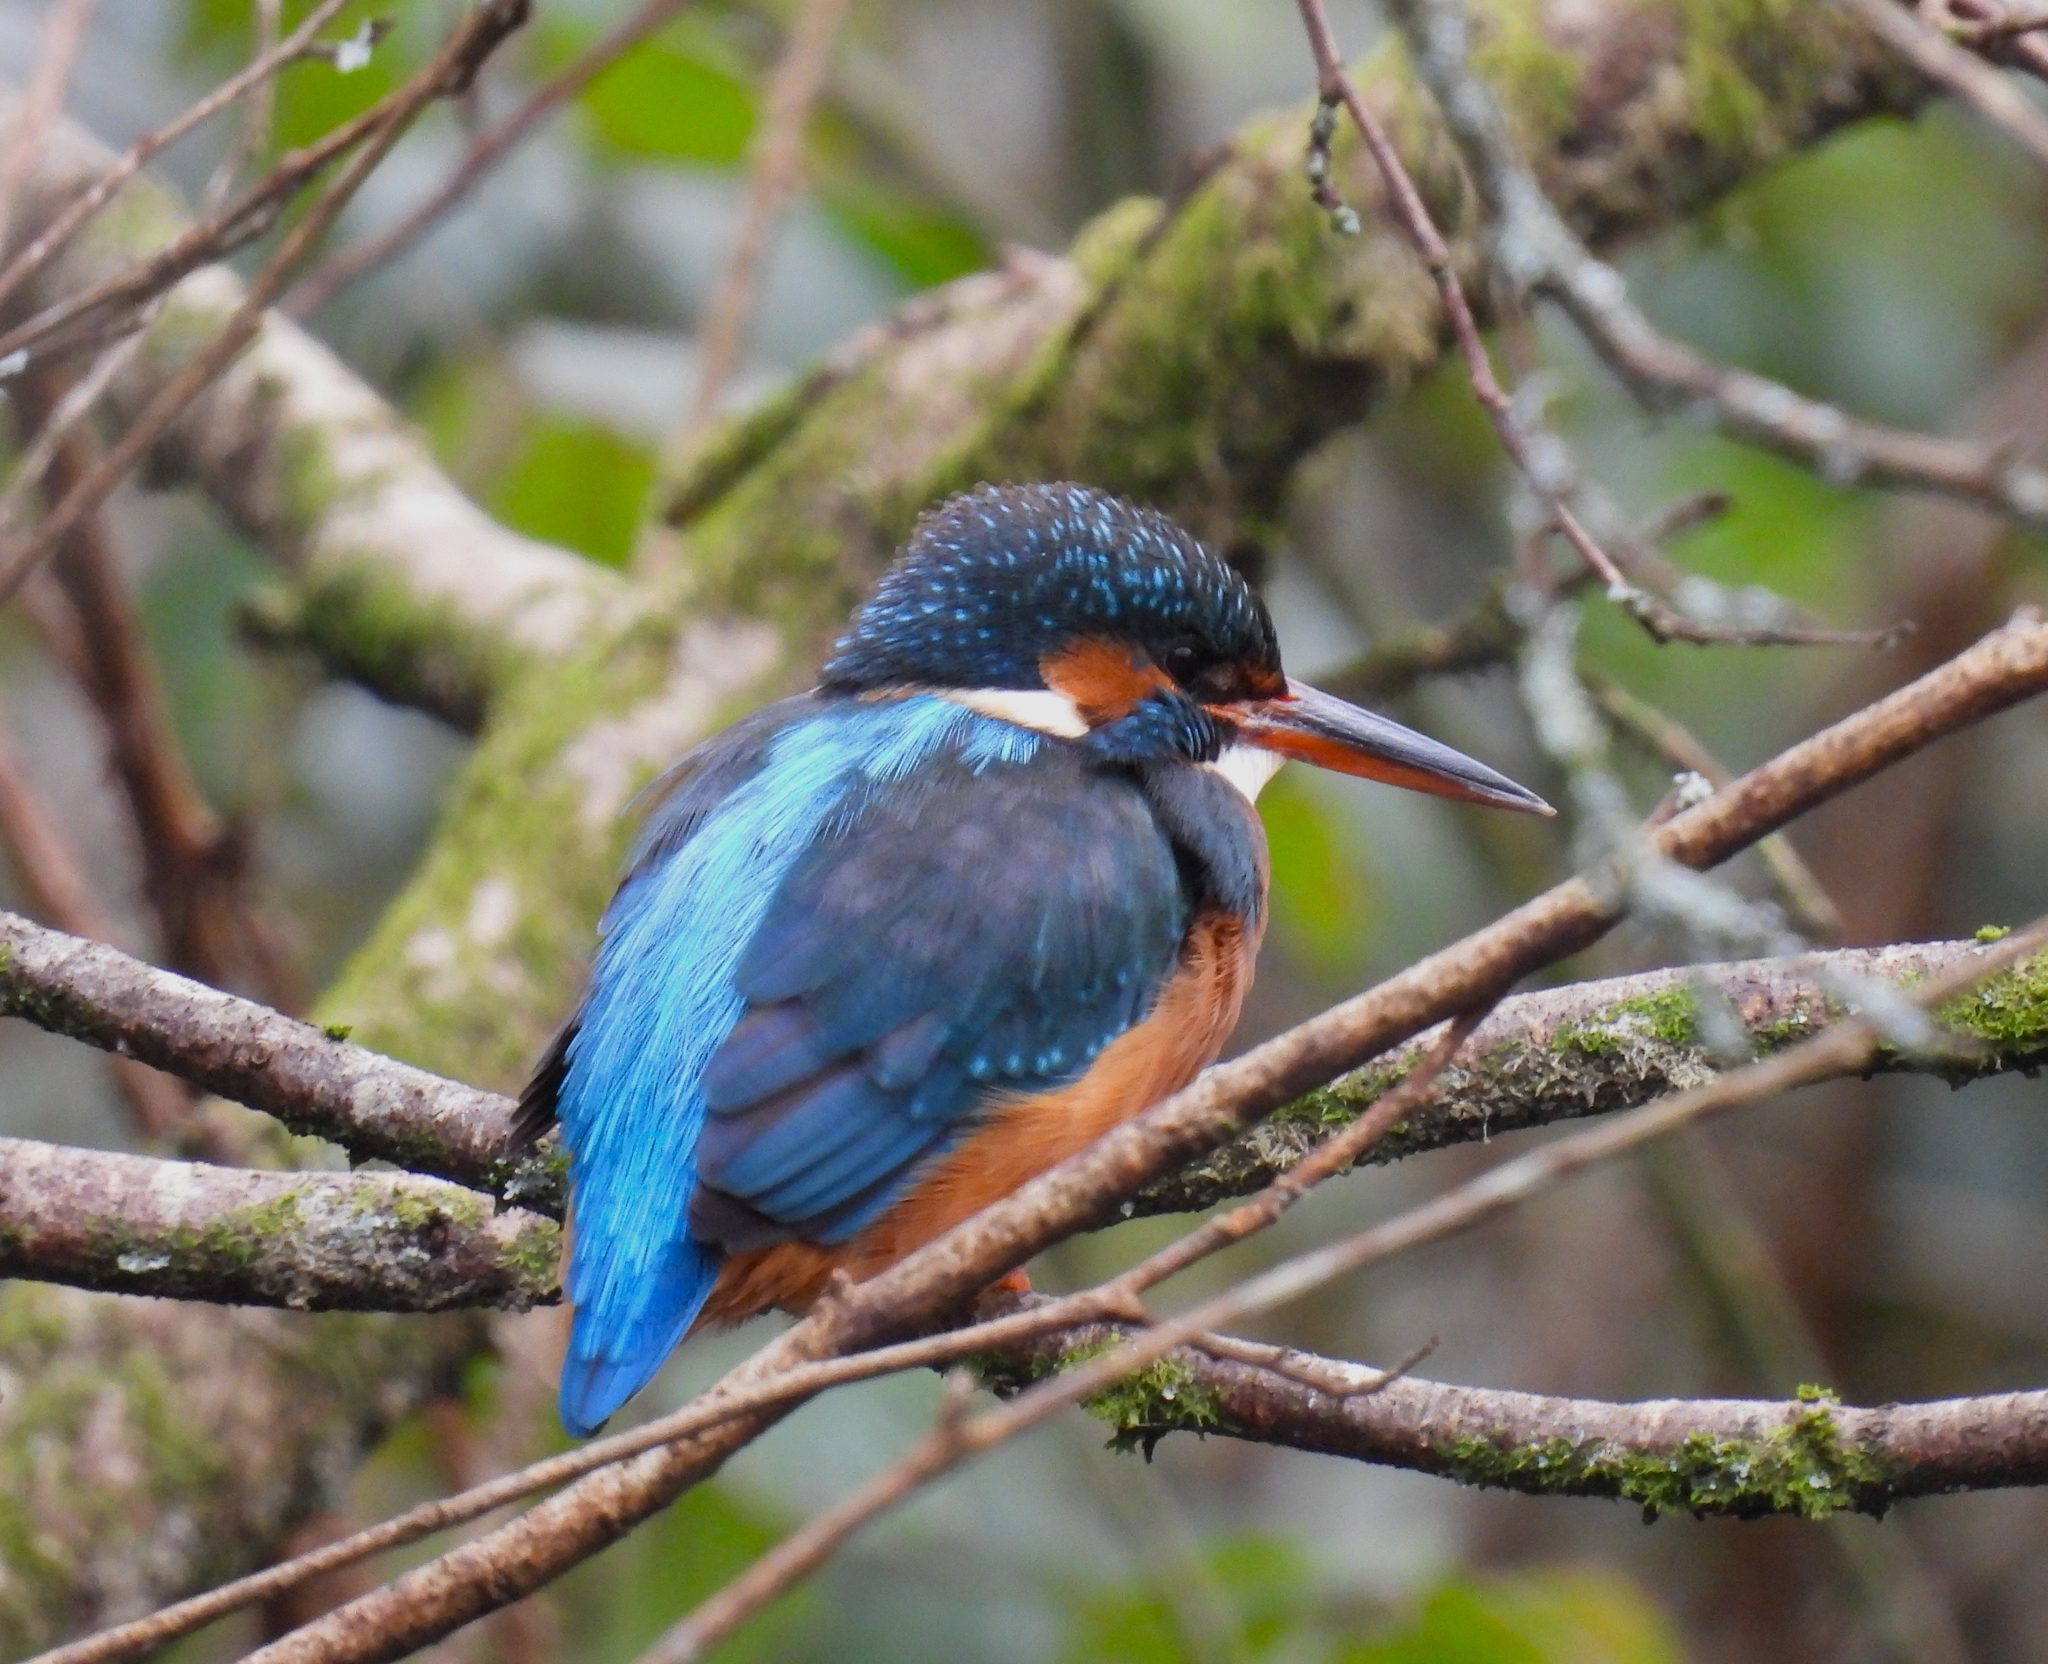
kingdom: Animalia
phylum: Chordata
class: Aves
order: Coraciiformes
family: Alcedinidae
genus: Alcedo
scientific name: Alcedo atthis
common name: Common kingfisher
